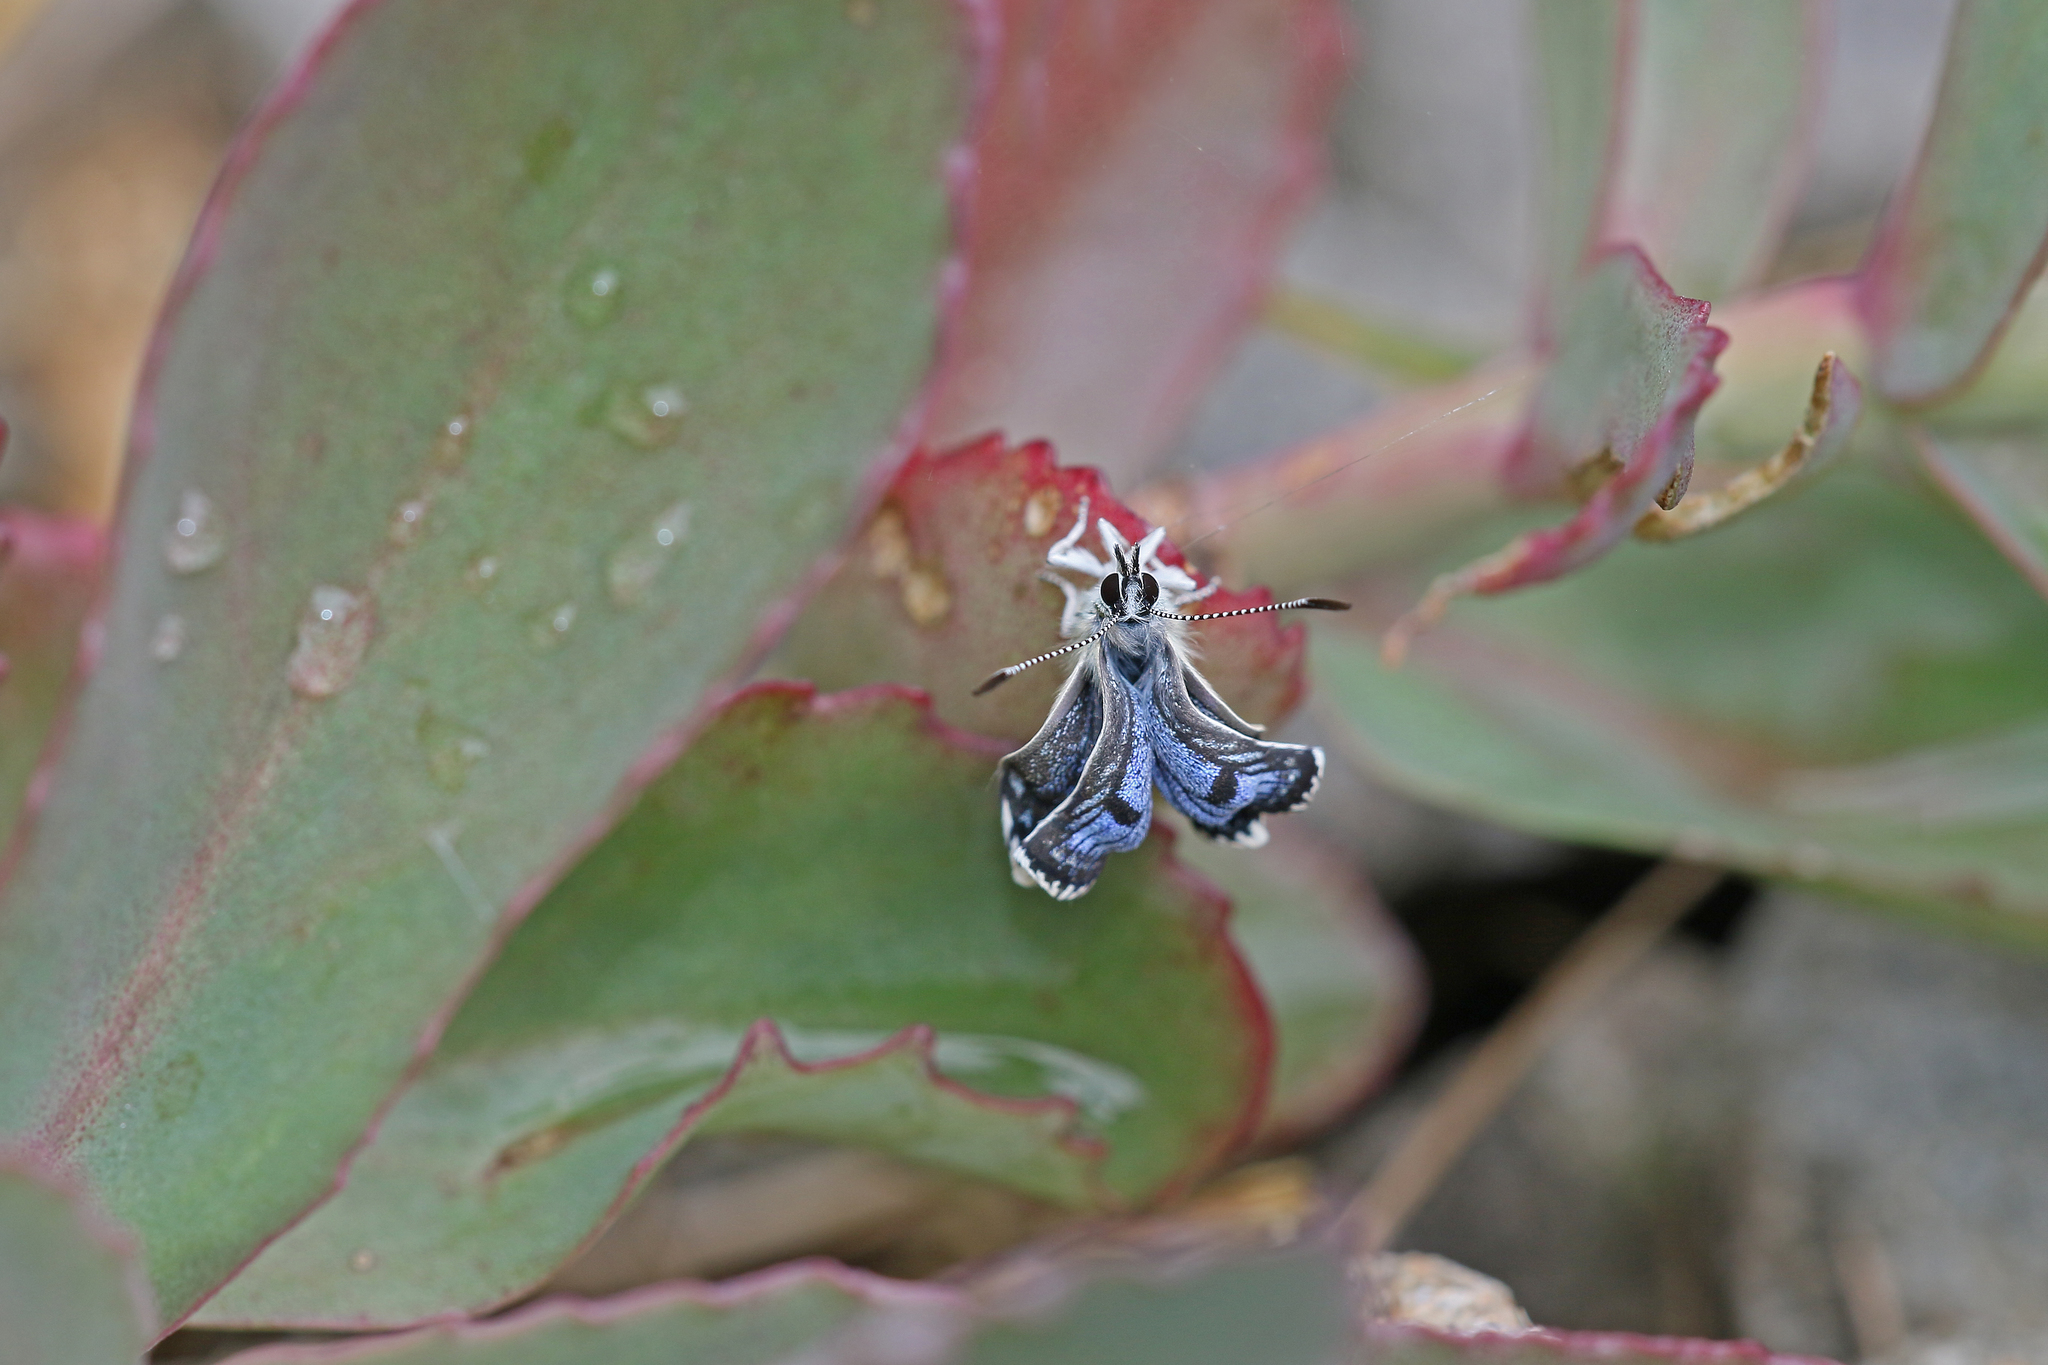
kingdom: Animalia
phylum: Arthropoda
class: Insecta
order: Lepidoptera
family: Lycaenidae
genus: Scolitantides
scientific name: Scolitantides orion
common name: Chequered blue
